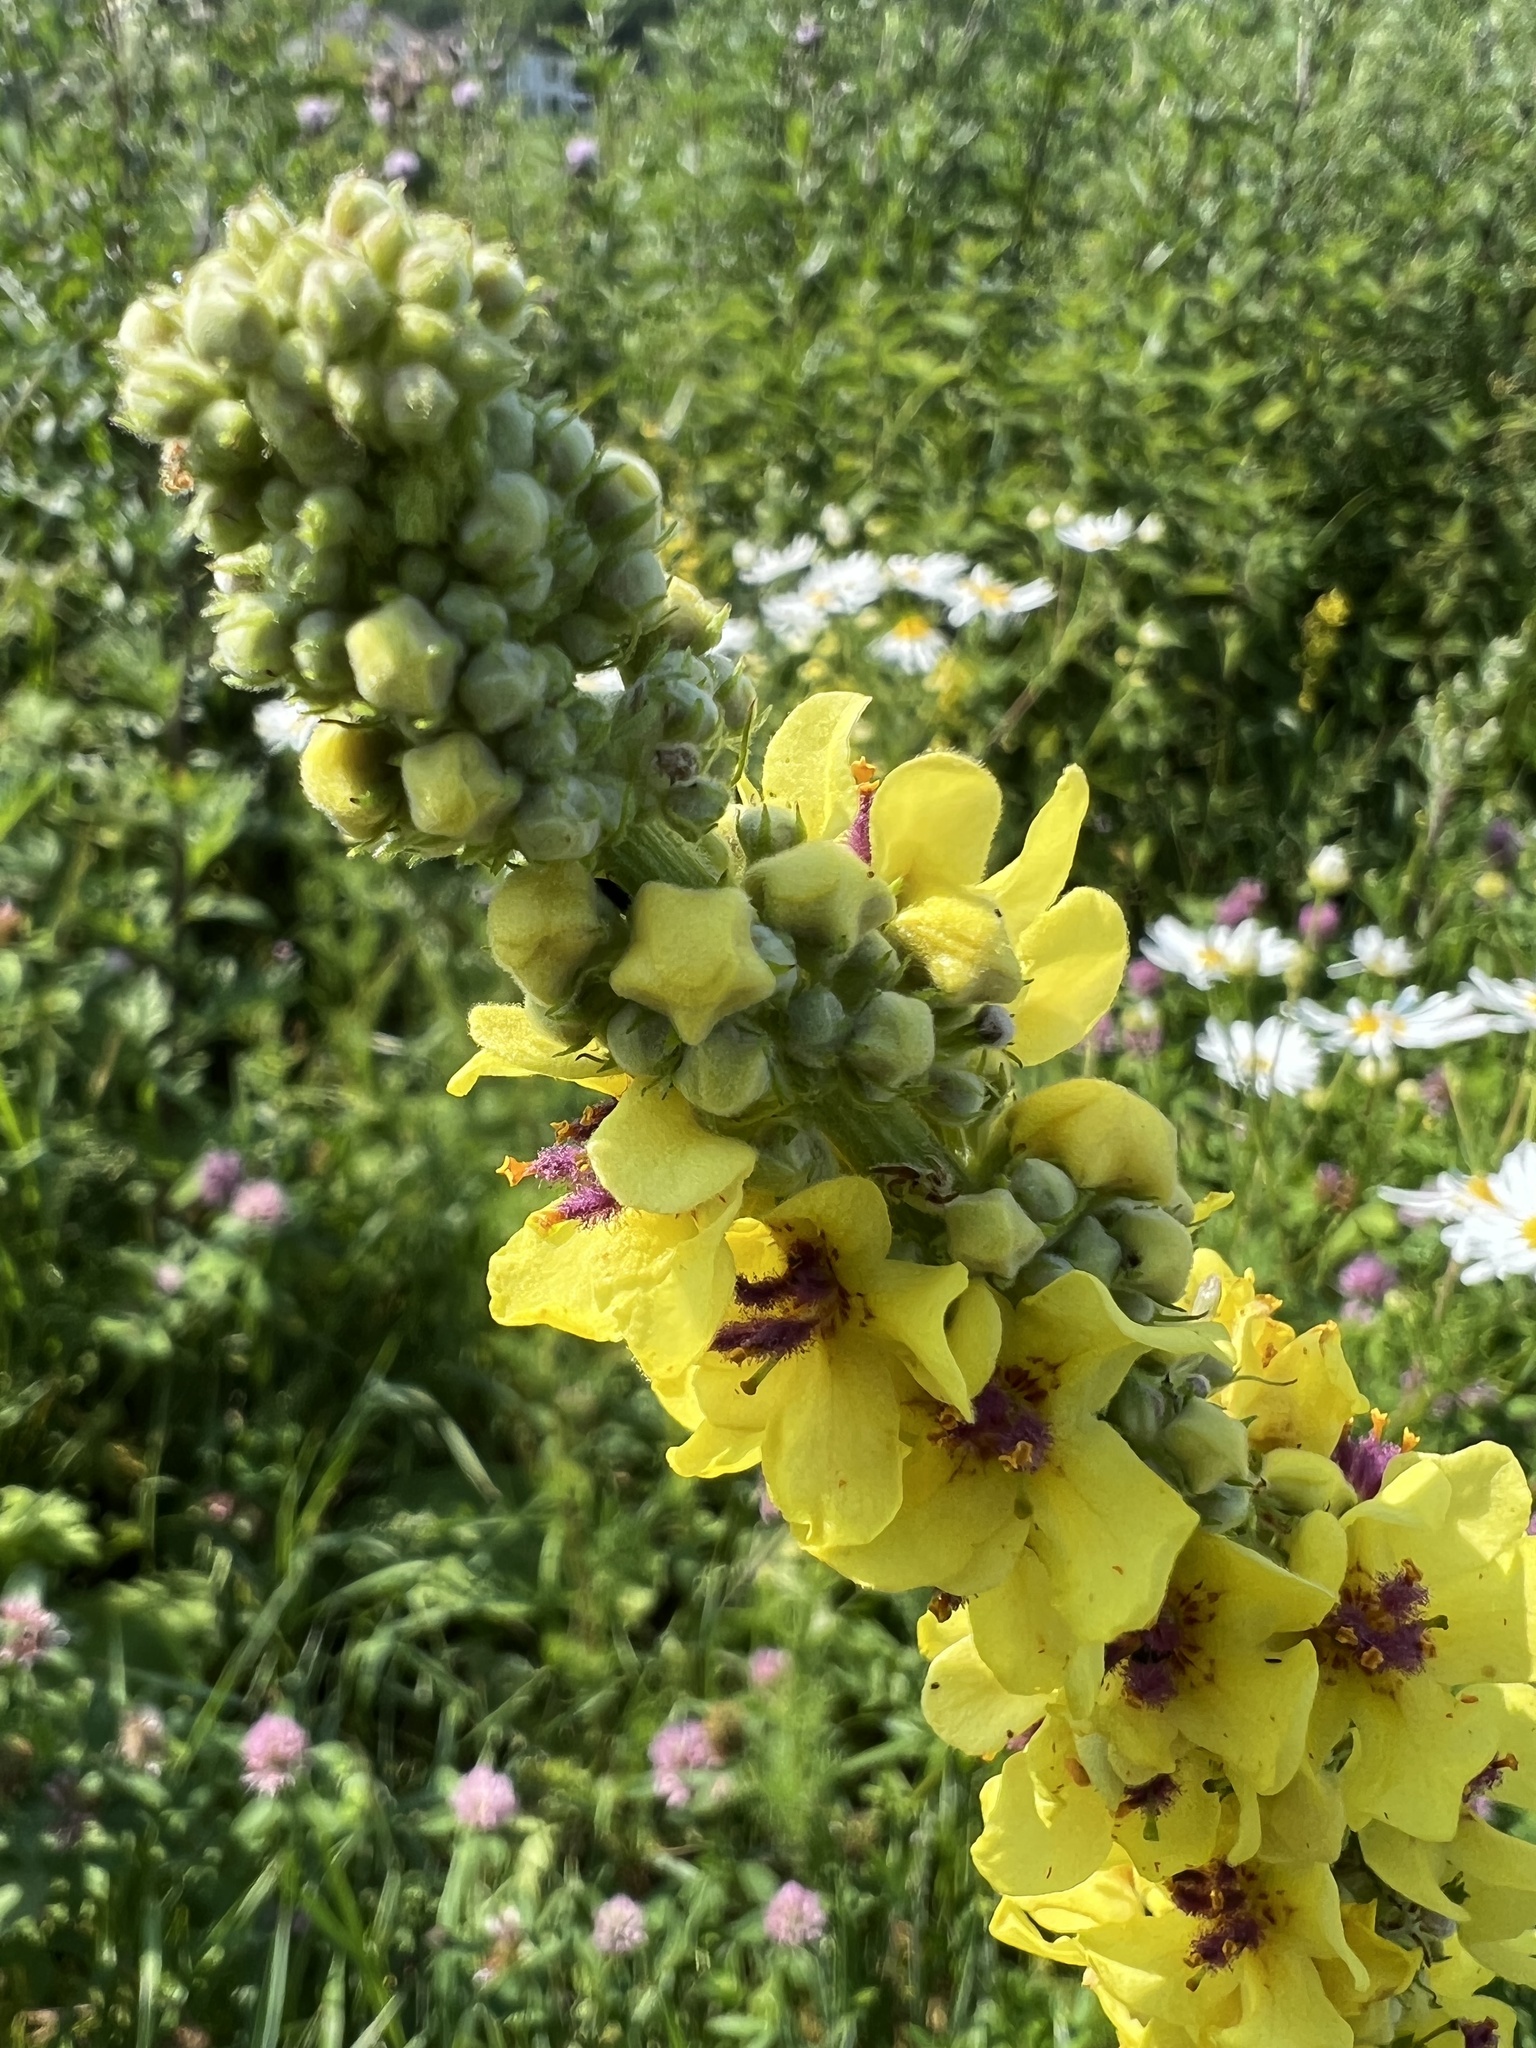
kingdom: Plantae
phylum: Tracheophyta
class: Magnoliopsida
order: Lamiales
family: Scrophulariaceae
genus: Verbascum
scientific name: Verbascum nigrum
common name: Dark mullein
